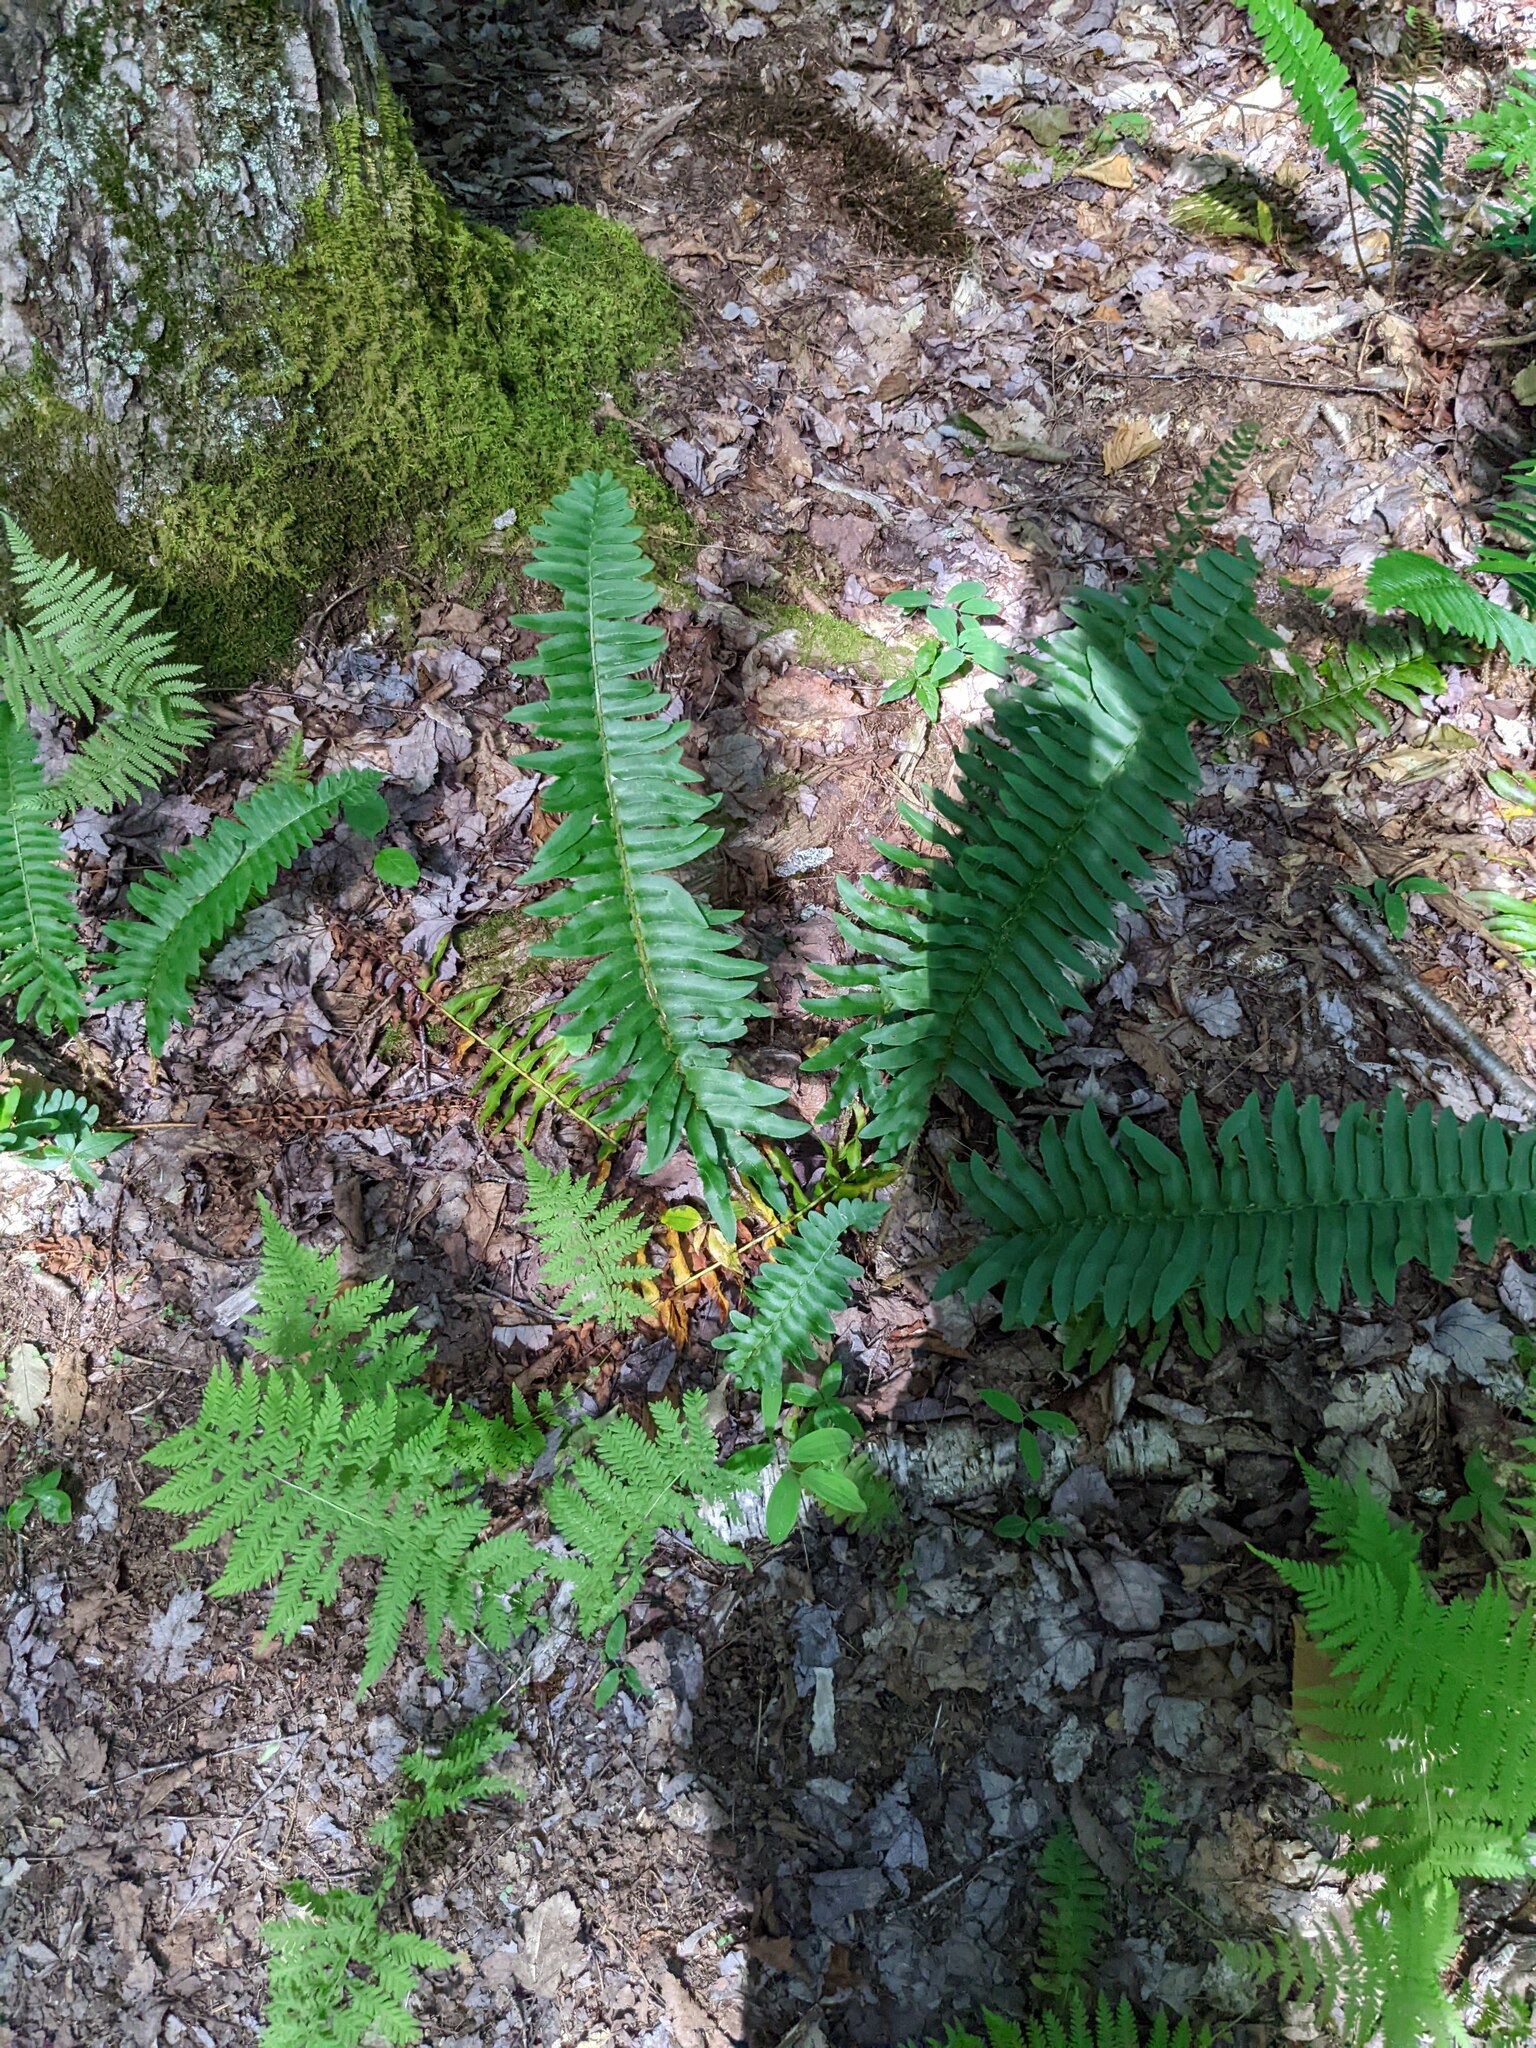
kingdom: Plantae
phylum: Tracheophyta
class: Polypodiopsida
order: Polypodiales
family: Dryopteridaceae
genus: Polystichum
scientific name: Polystichum acrostichoides
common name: Christmas fern
